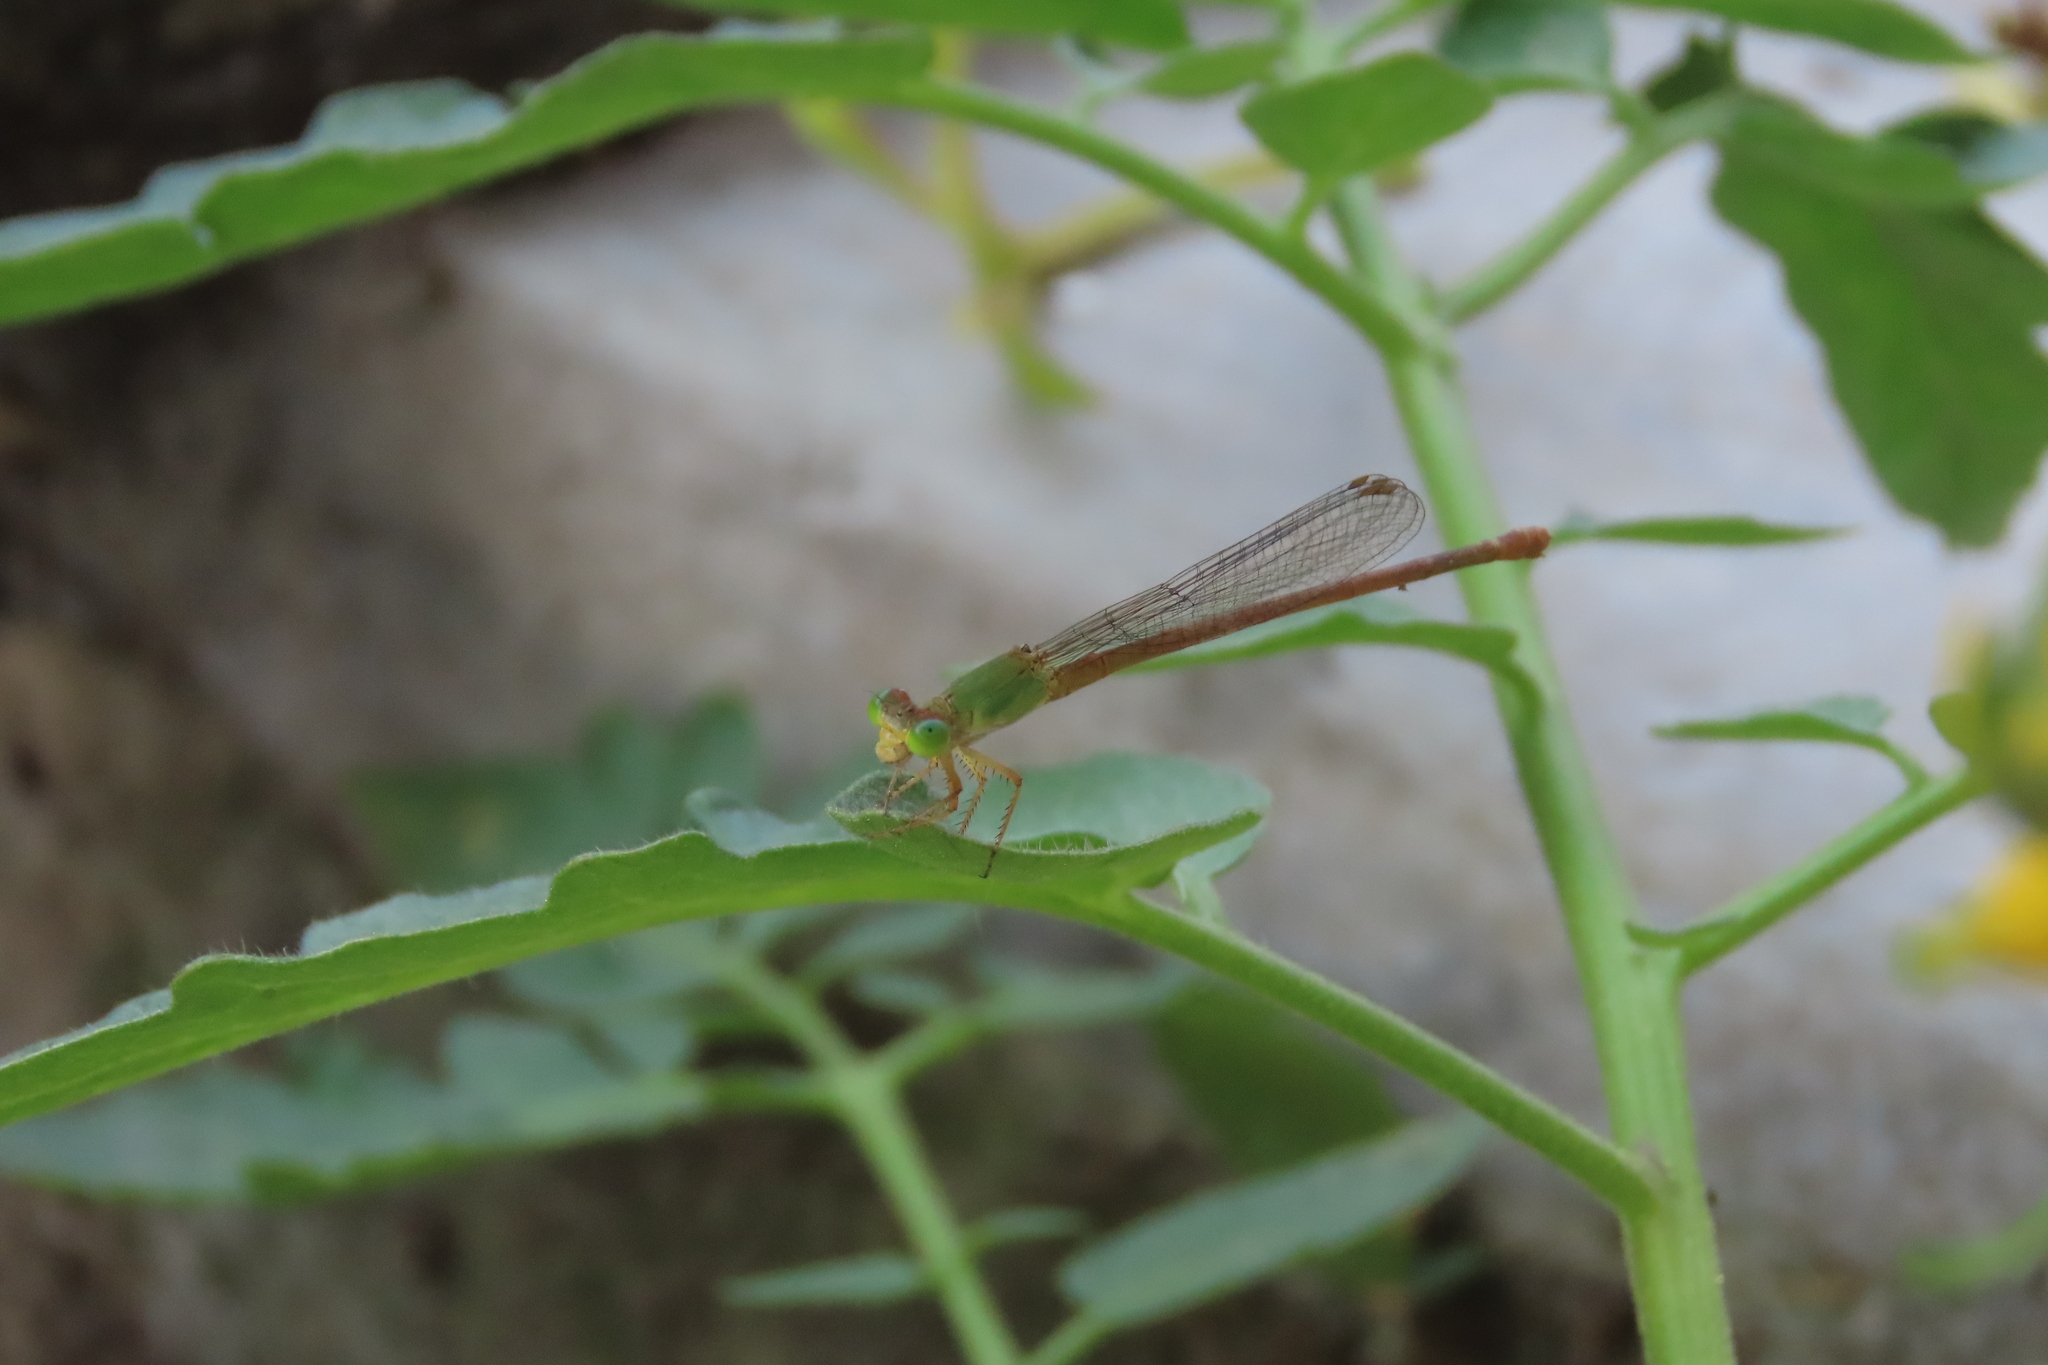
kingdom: Animalia
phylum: Arthropoda
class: Insecta
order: Odonata
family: Coenagrionidae
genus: Ceriagrion
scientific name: Ceriagrion coromandelianum
